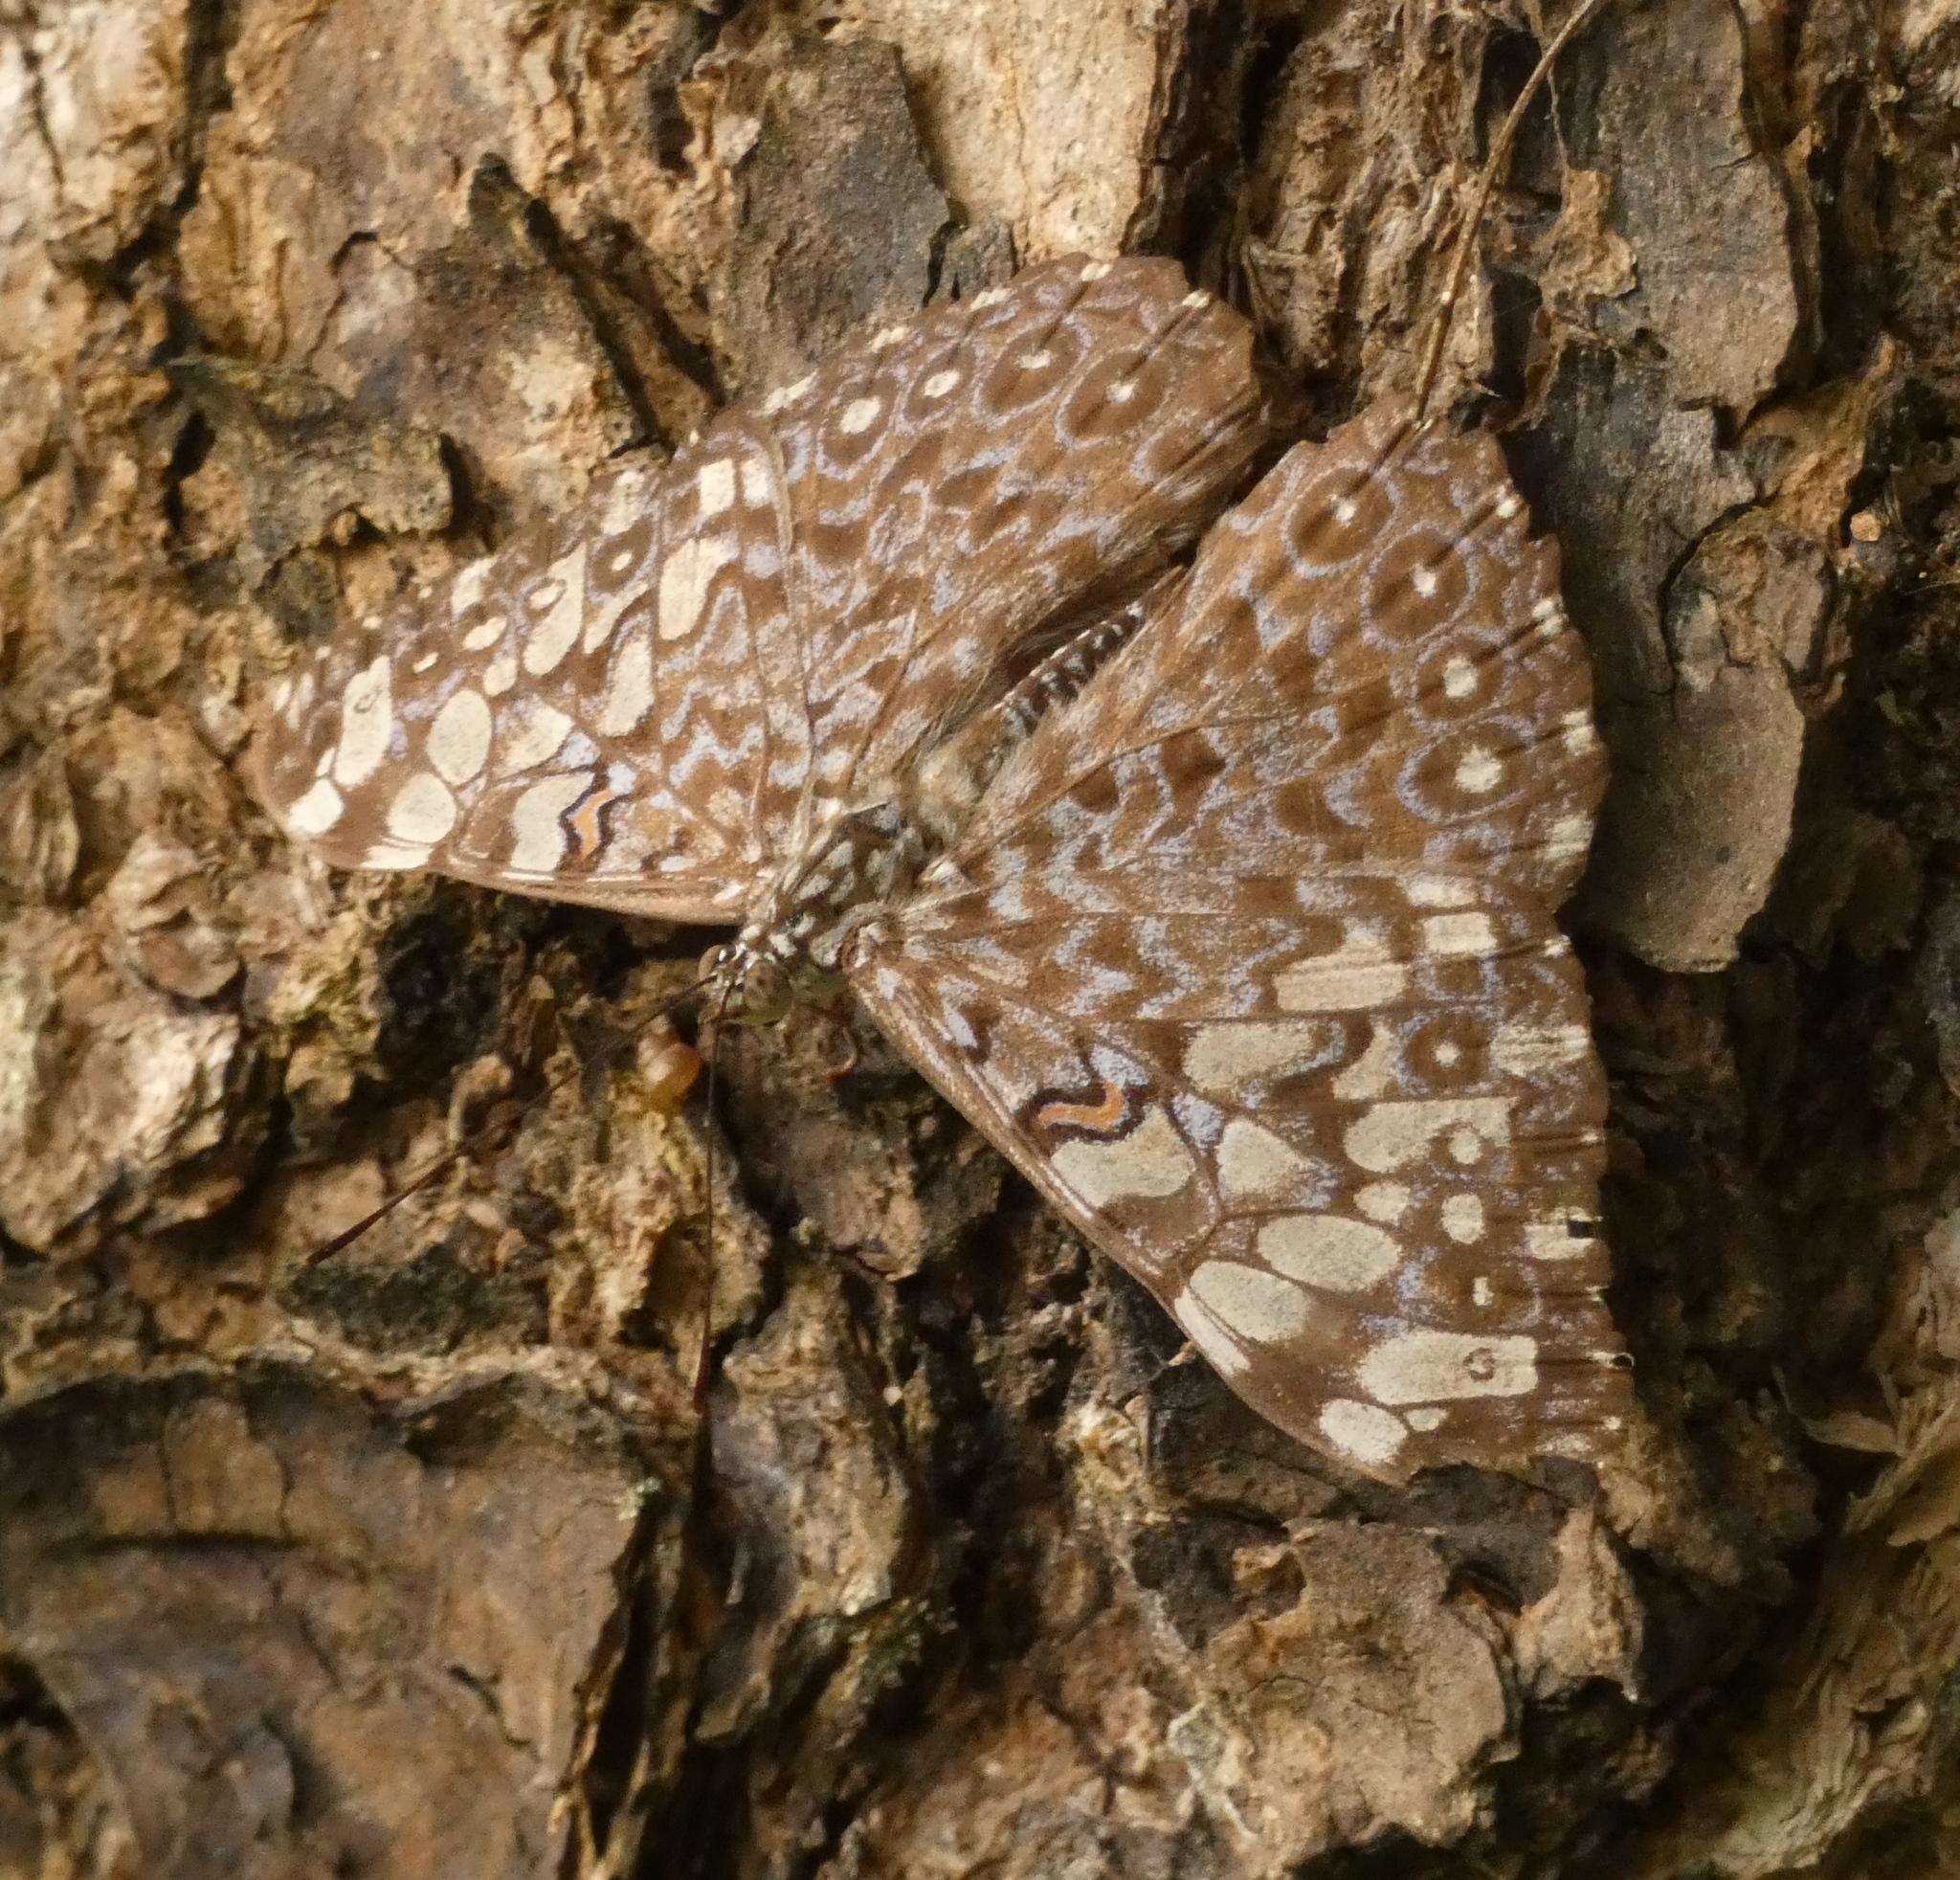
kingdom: Animalia
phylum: Arthropoda
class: Insecta
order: Lepidoptera
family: Nymphalidae
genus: Hamadryas
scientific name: Hamadryas feronia
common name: Variable cracker
